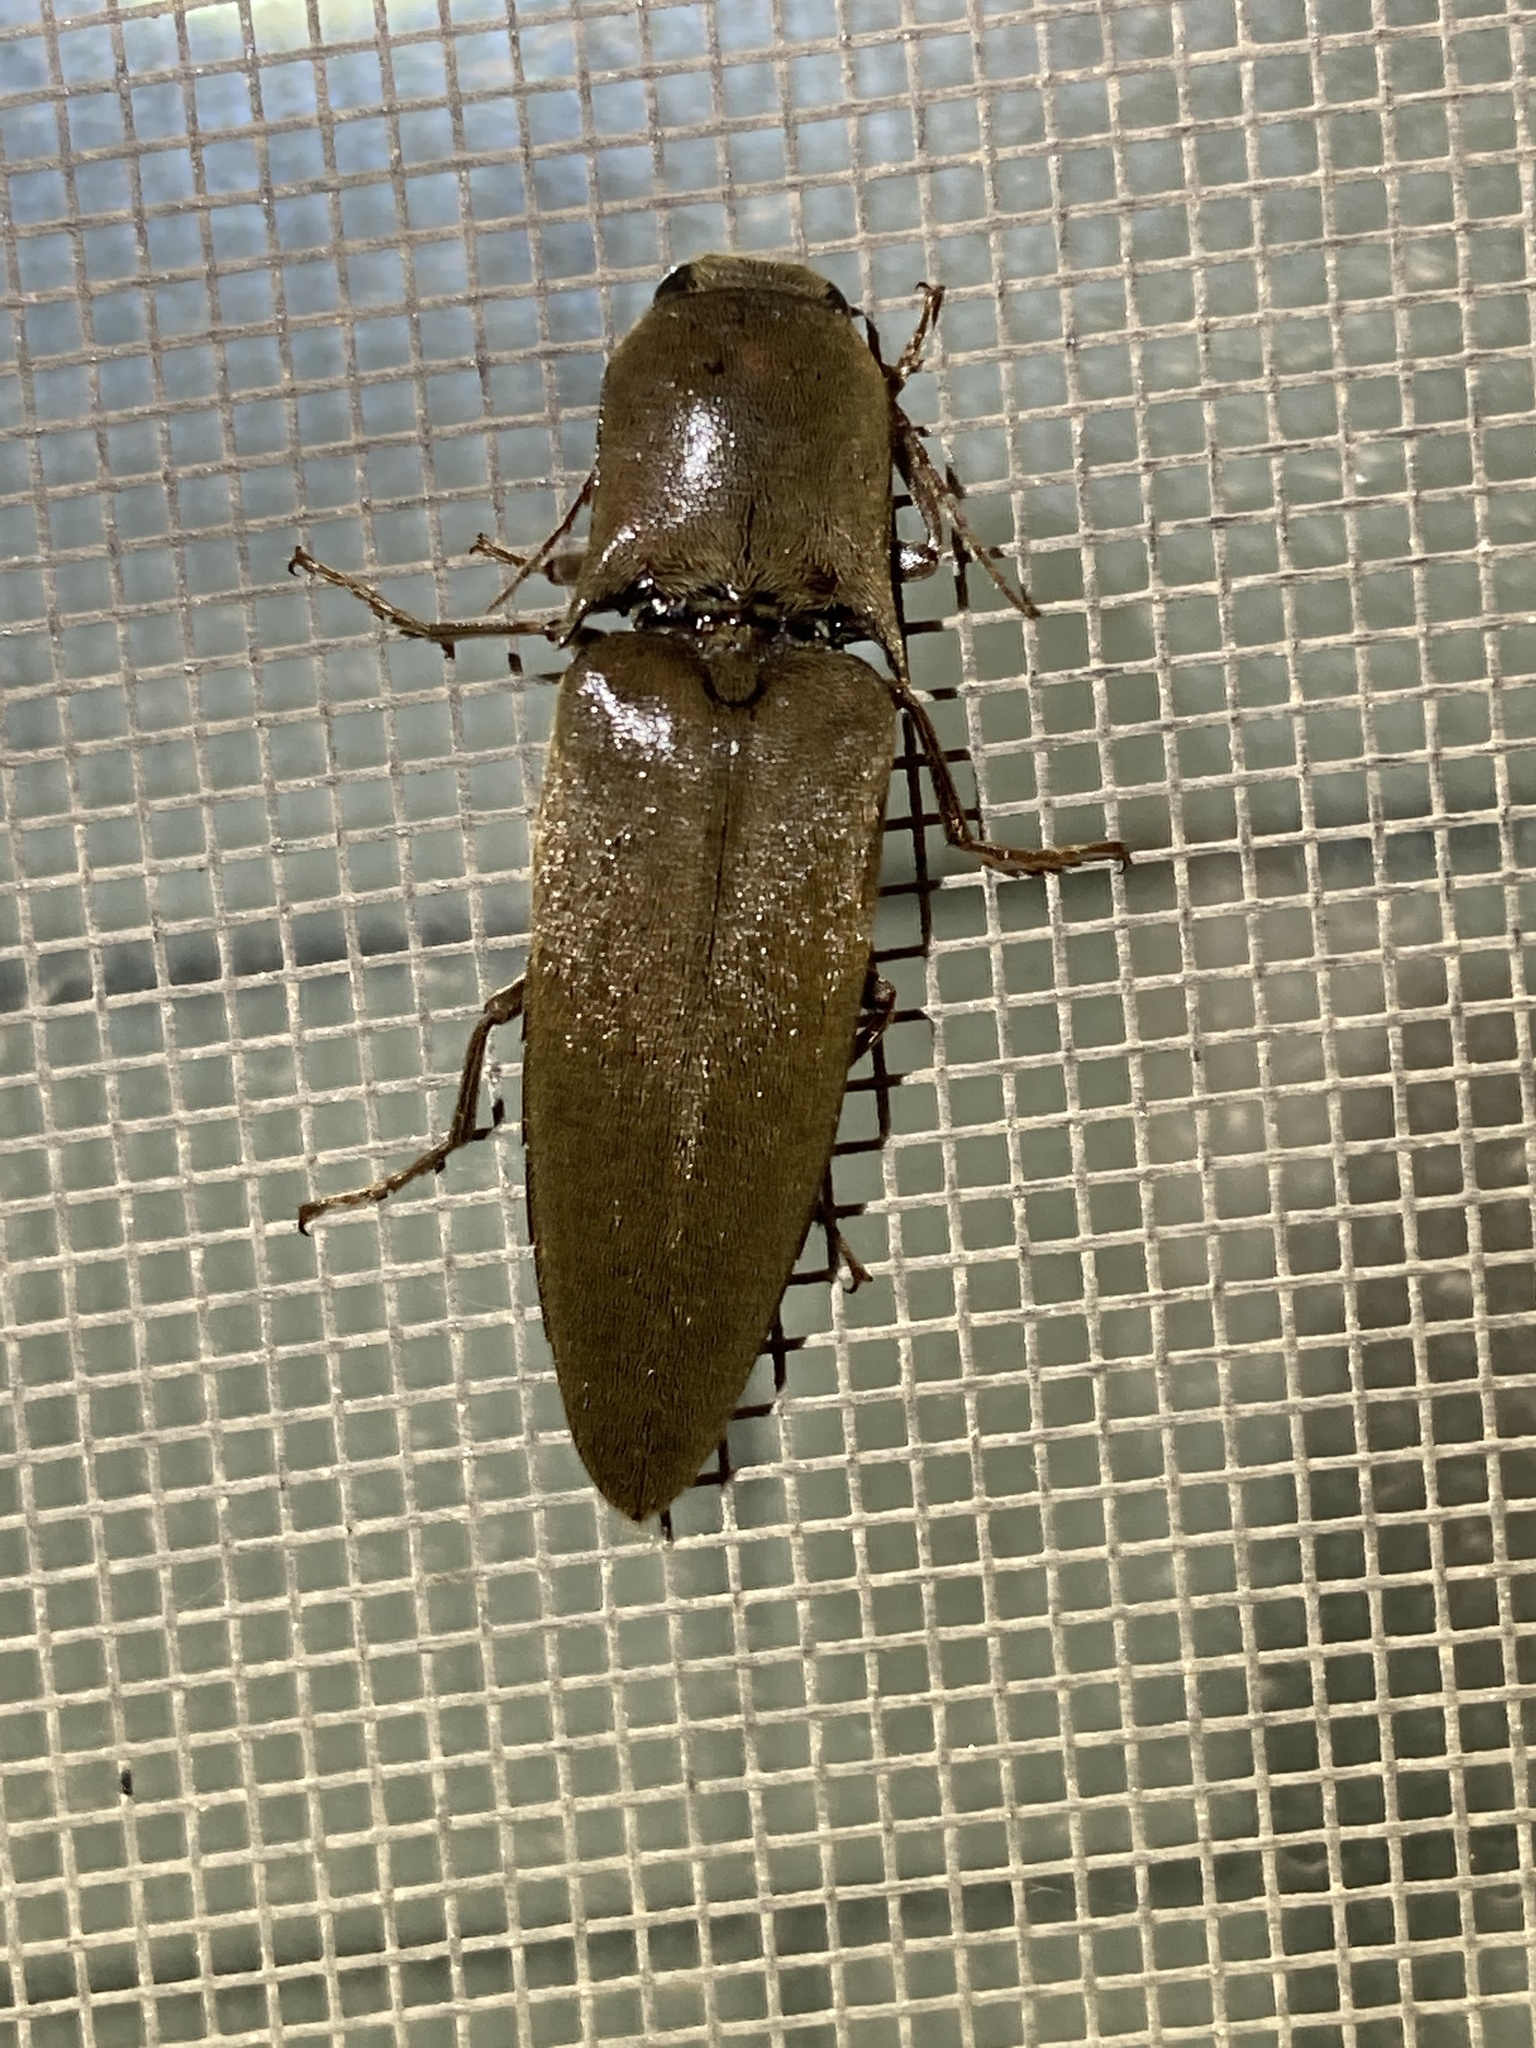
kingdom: Animalia
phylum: Arthropoda
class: Insecta
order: Coleoptera
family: Elateridae
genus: Orthostethus
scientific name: Orthostethus infuscatus
